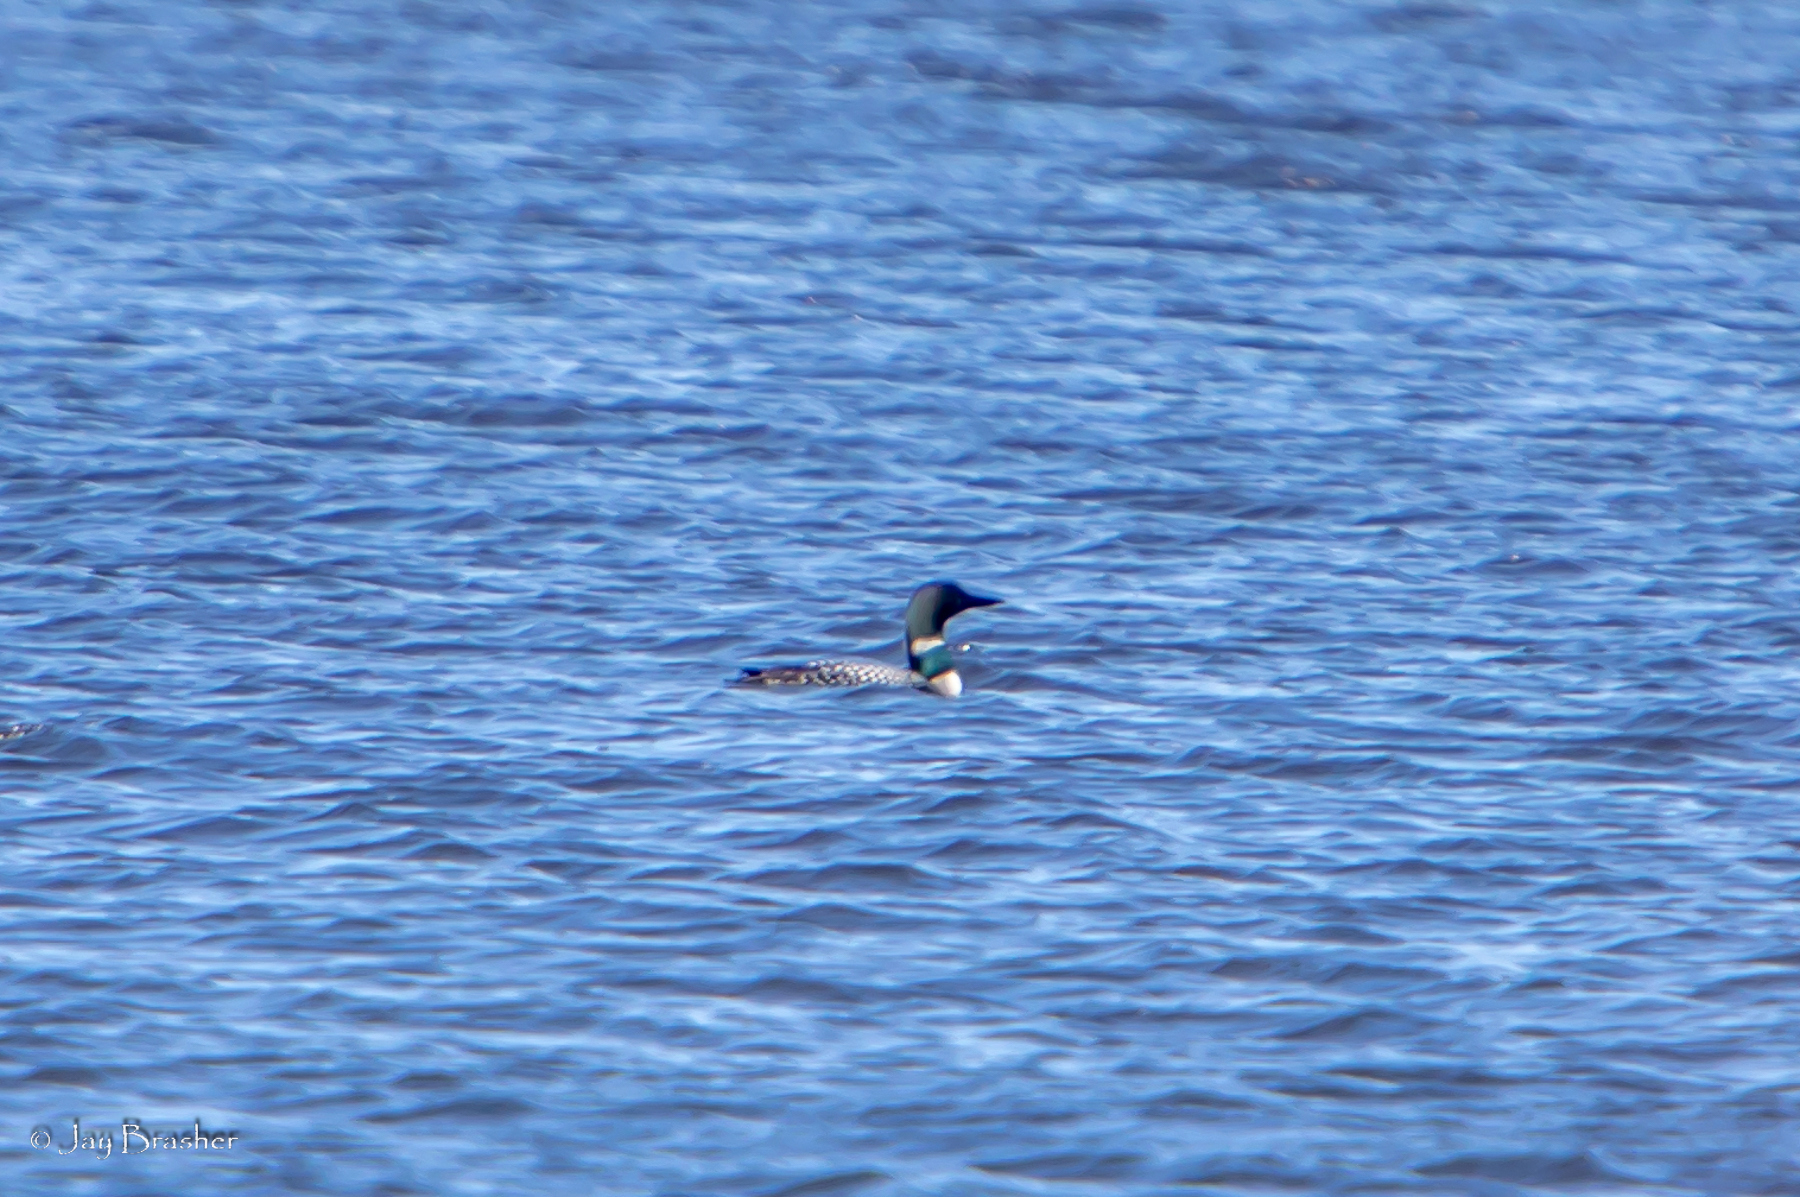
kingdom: Animalia
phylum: Chordata
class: Aves
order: Gaviiformes
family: Gaviidae
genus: Gavia
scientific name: Gavia immer
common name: Common loon
